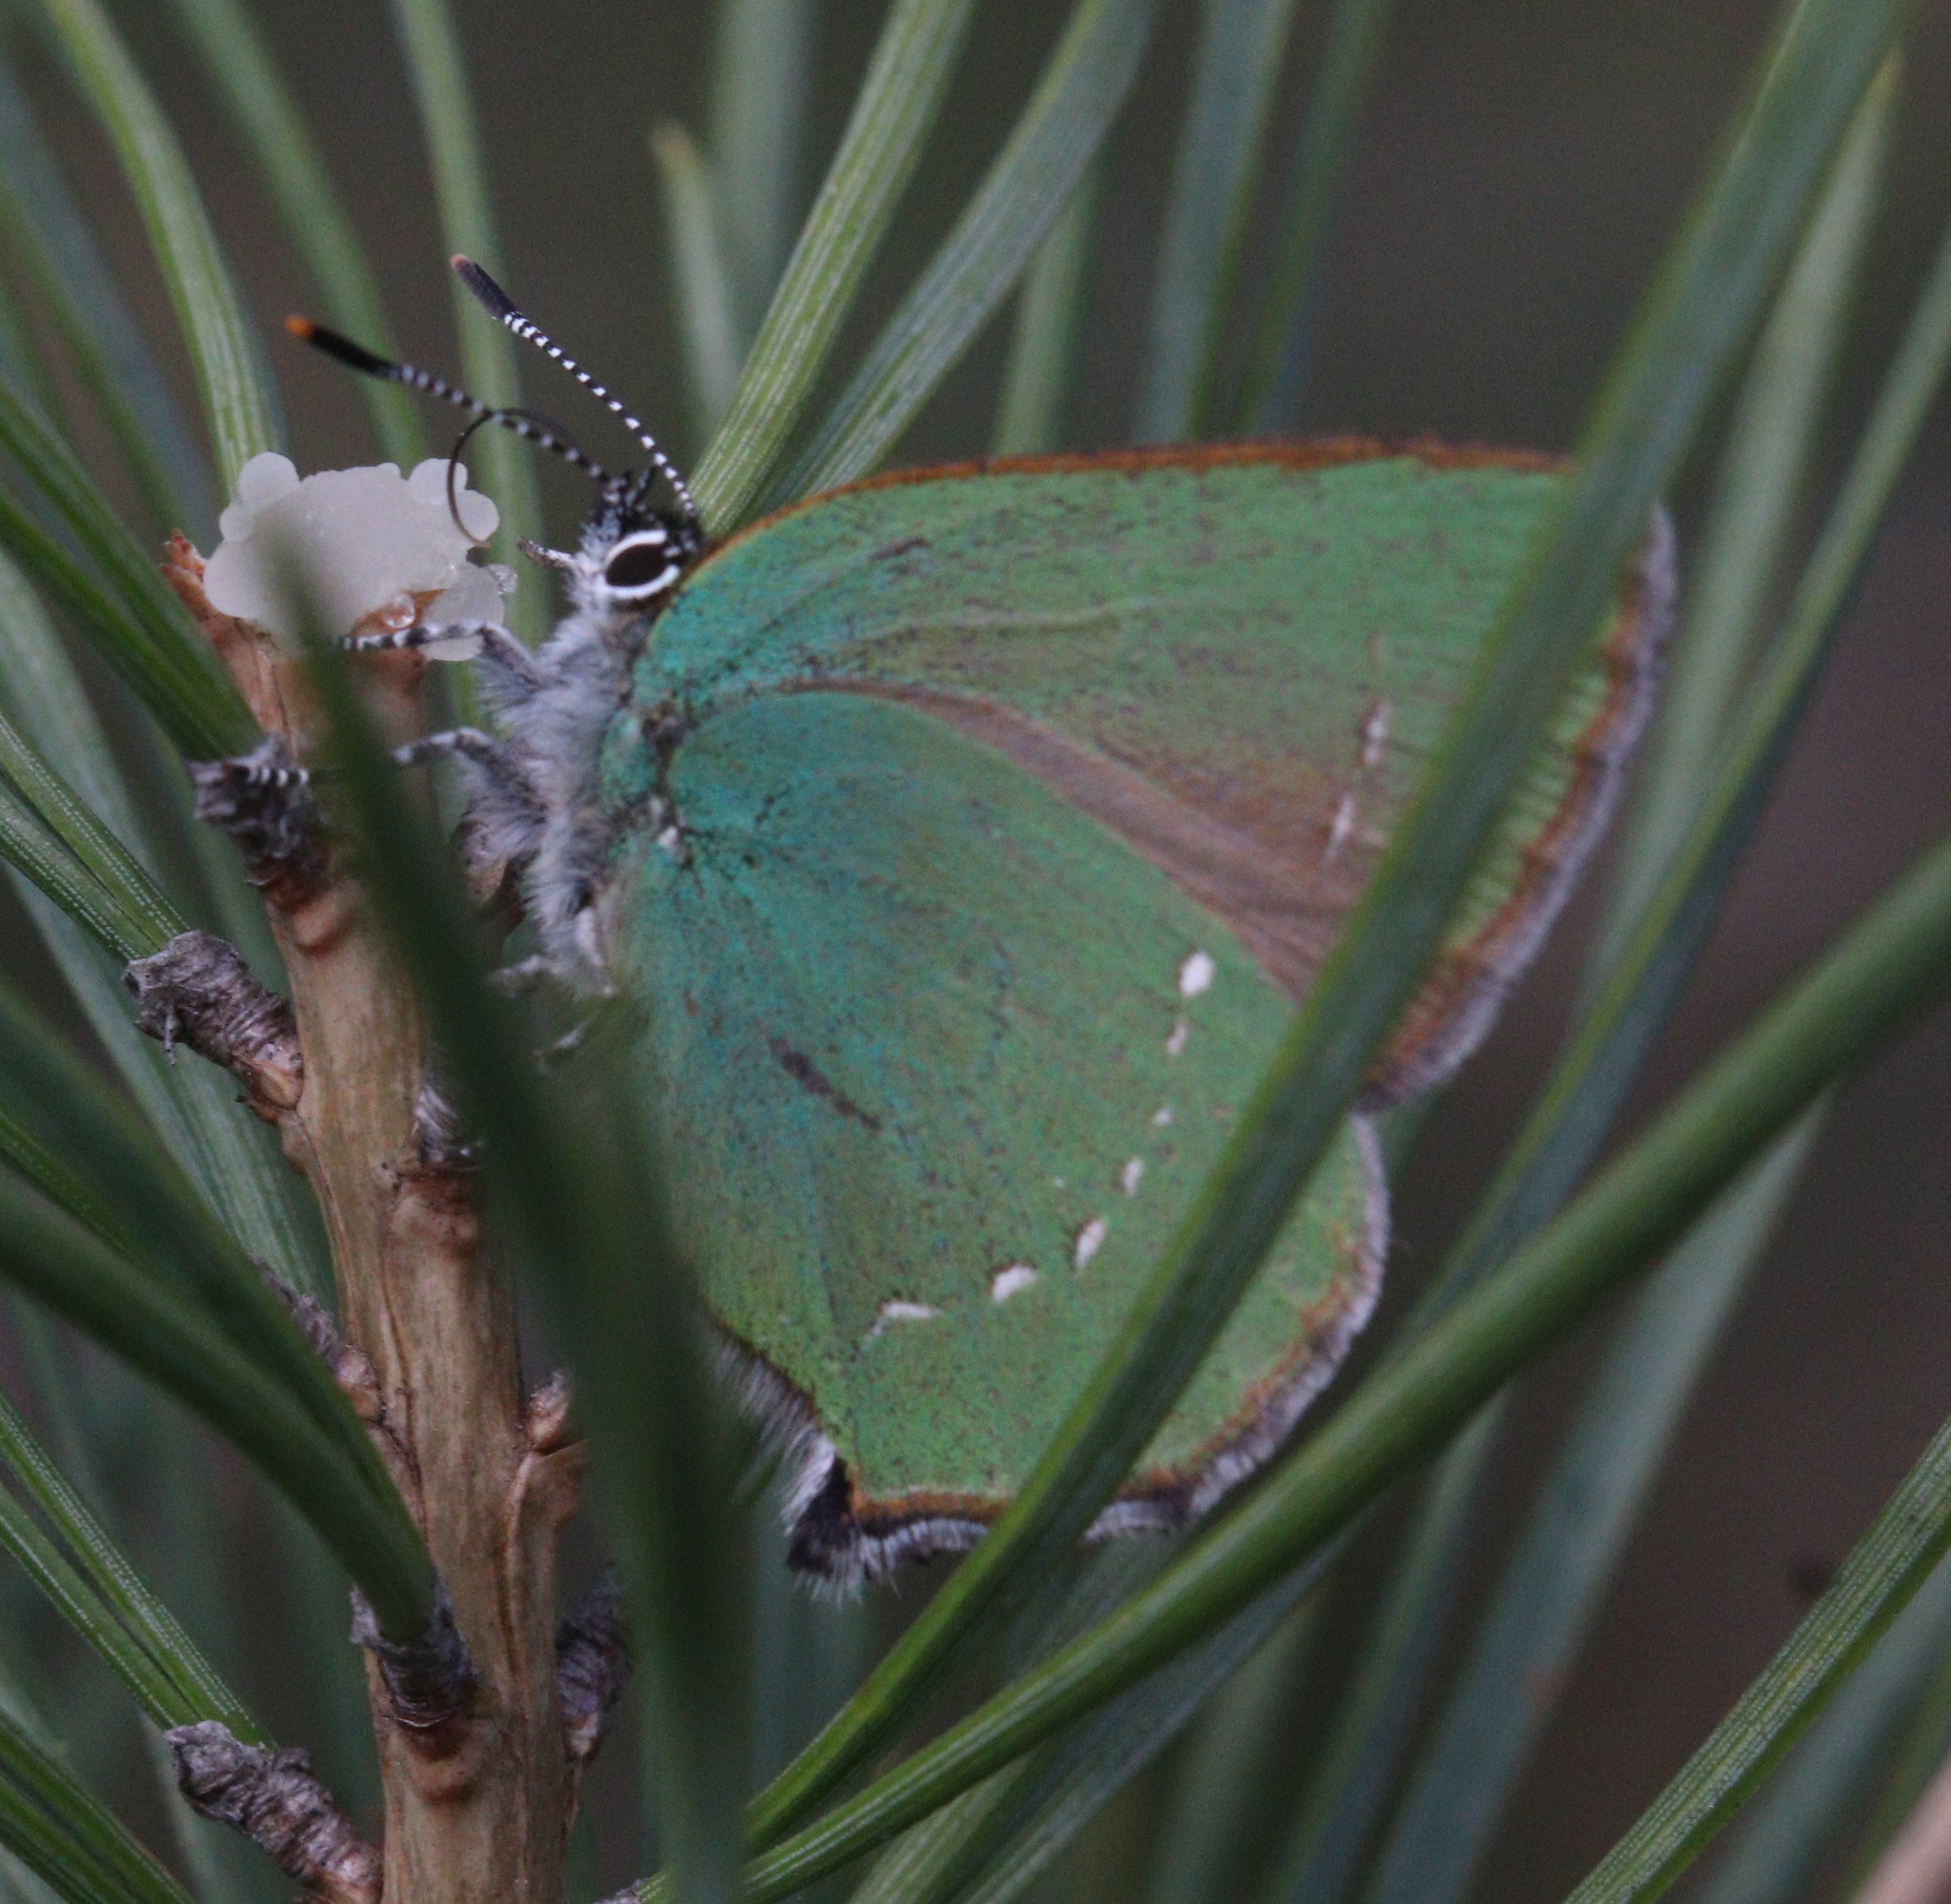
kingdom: Animalia
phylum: Arthropoda
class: Insecta
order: Lepidoptera
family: Lycaenidae
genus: Callophrys
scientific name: Callophrys rubi
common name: Green hairstreak
